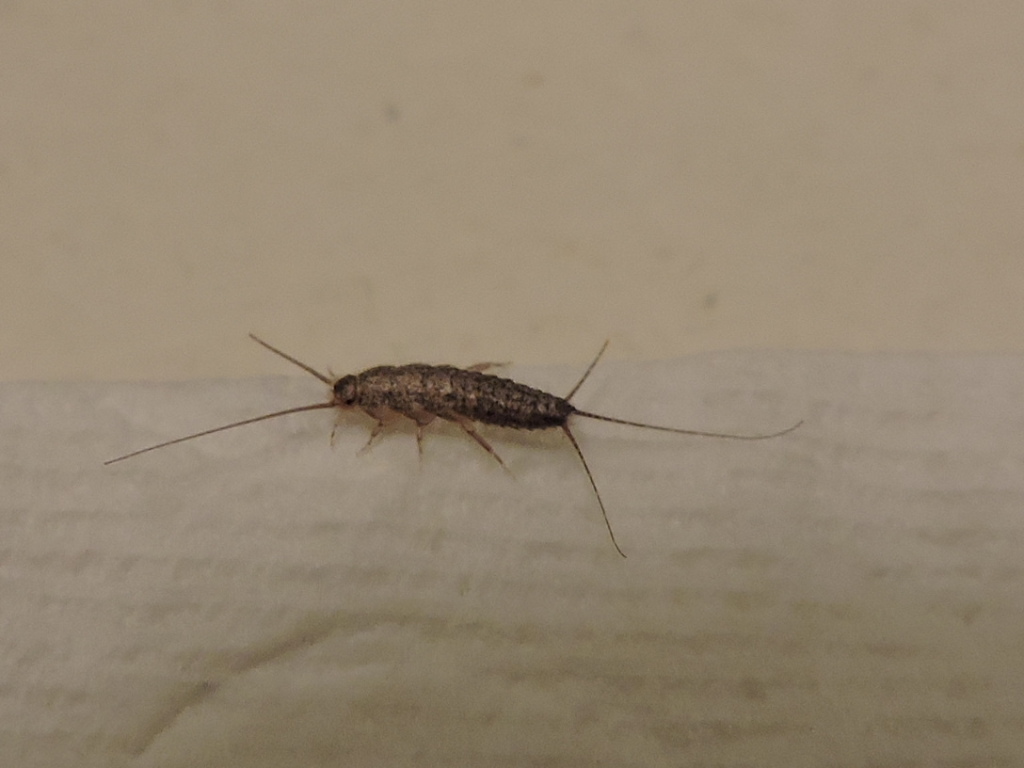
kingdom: Animalia
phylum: Arthropoda
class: Insecta
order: Zygentoma
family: Lepismatidae
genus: Ctenolepisma
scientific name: Ctenolepisma lineata
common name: Four-lined silverfish
